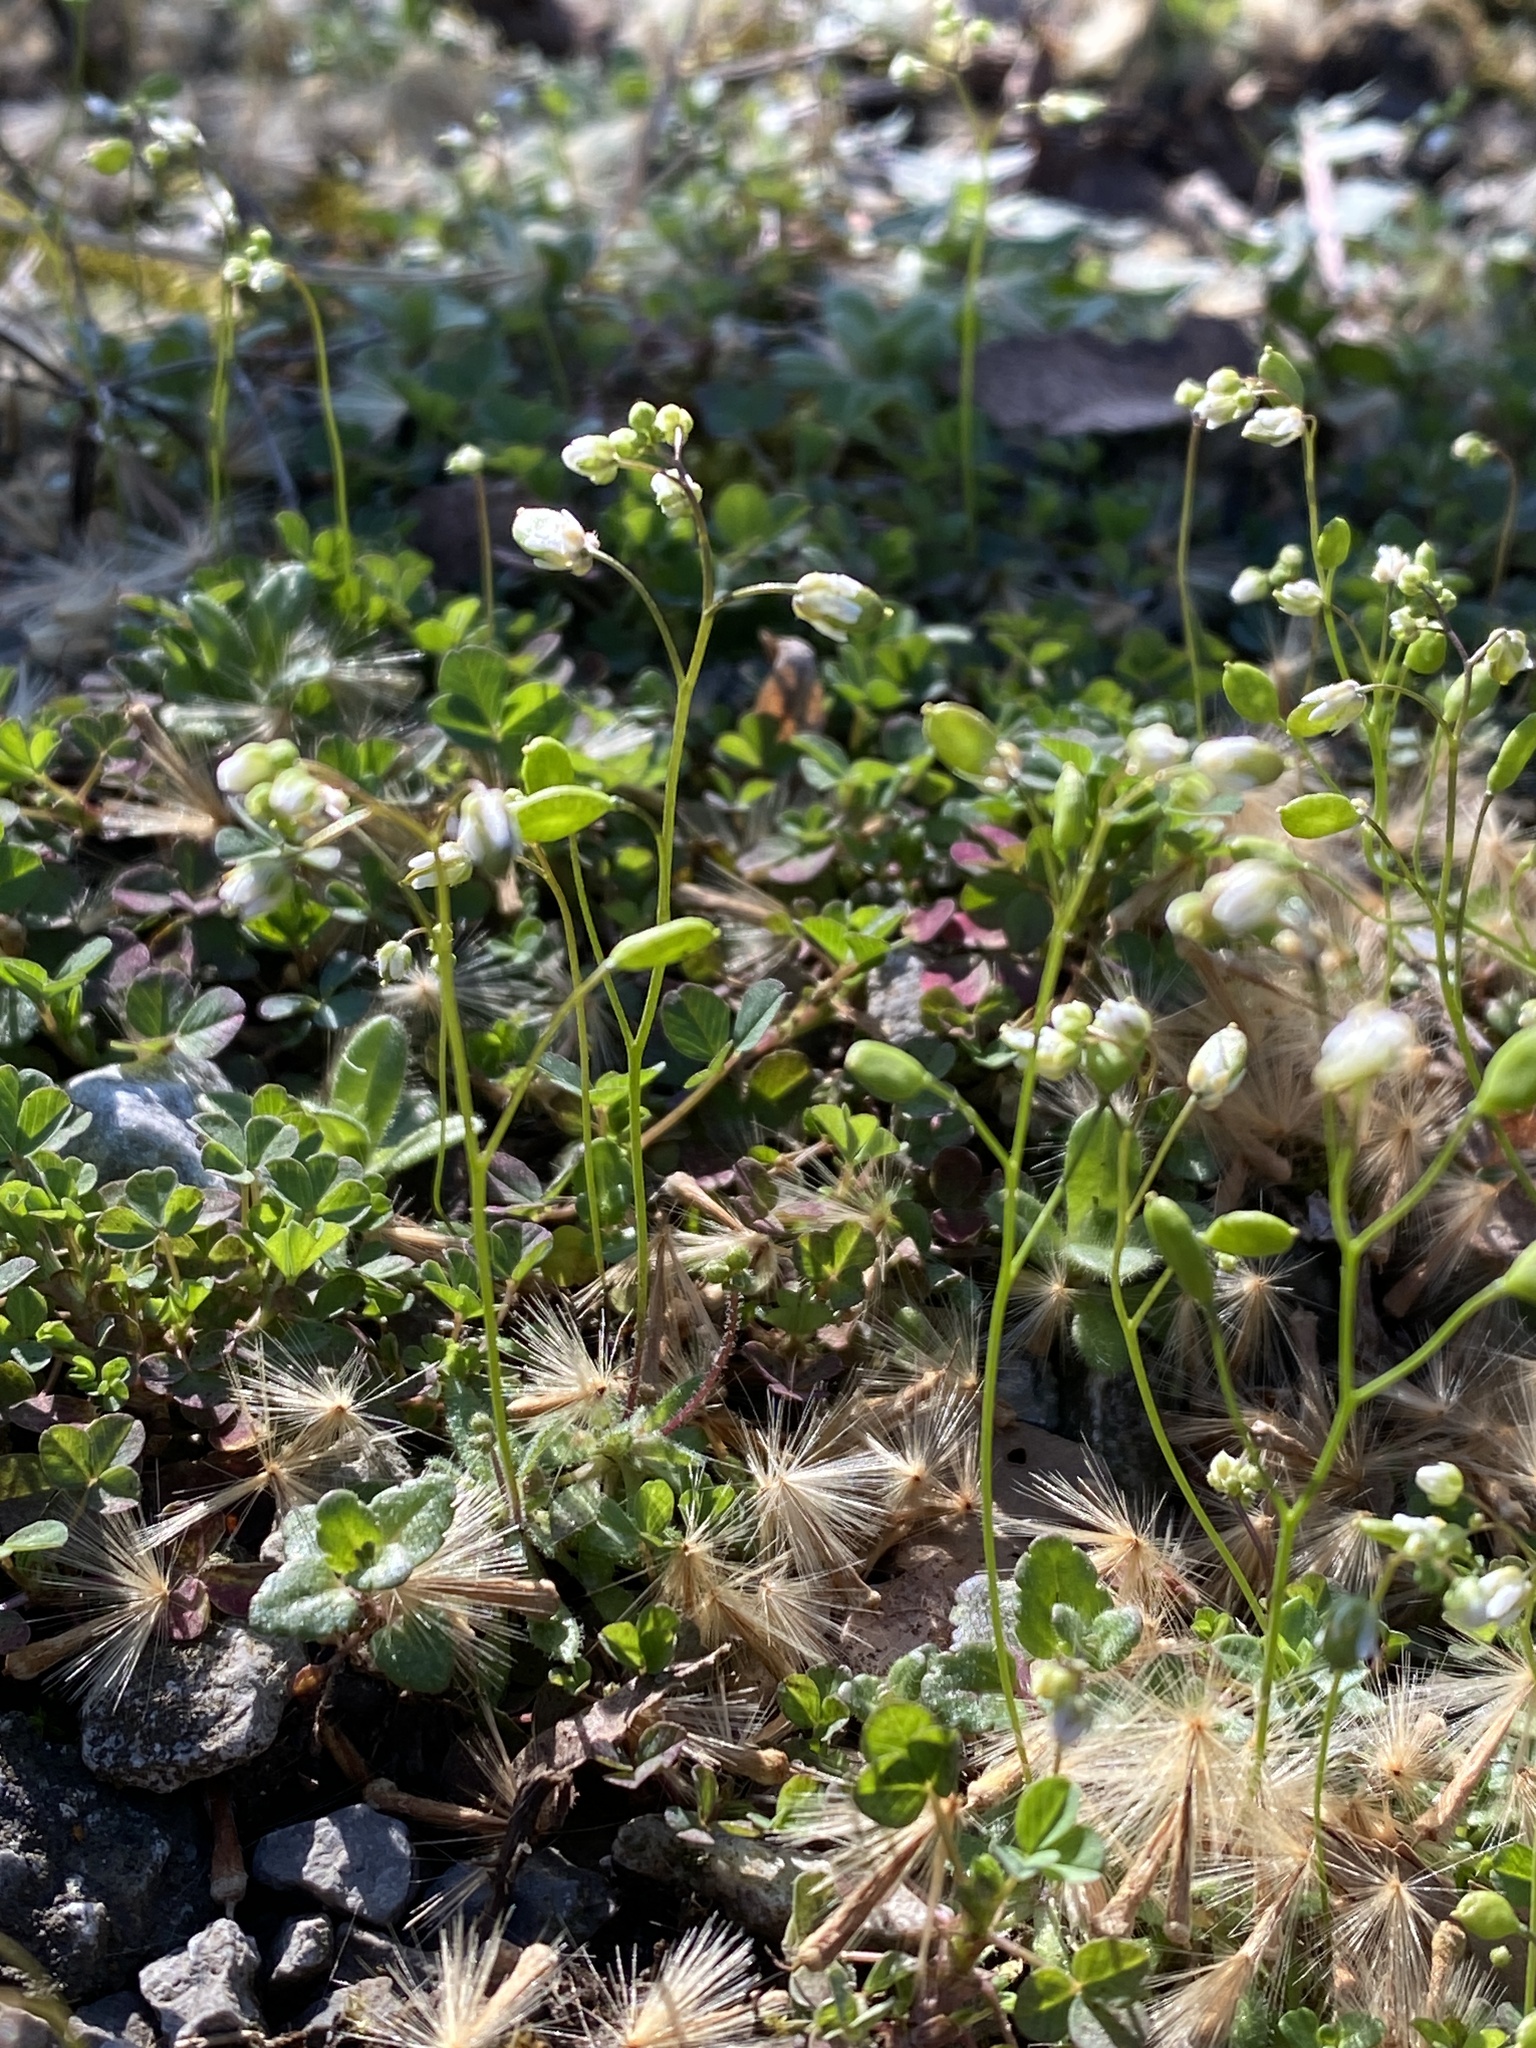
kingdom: Plantae
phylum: Tracheophyta
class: Magnoliopsida
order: Brassicales
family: Brassicaceae
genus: Draba
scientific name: Draba verna
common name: Spring draba
